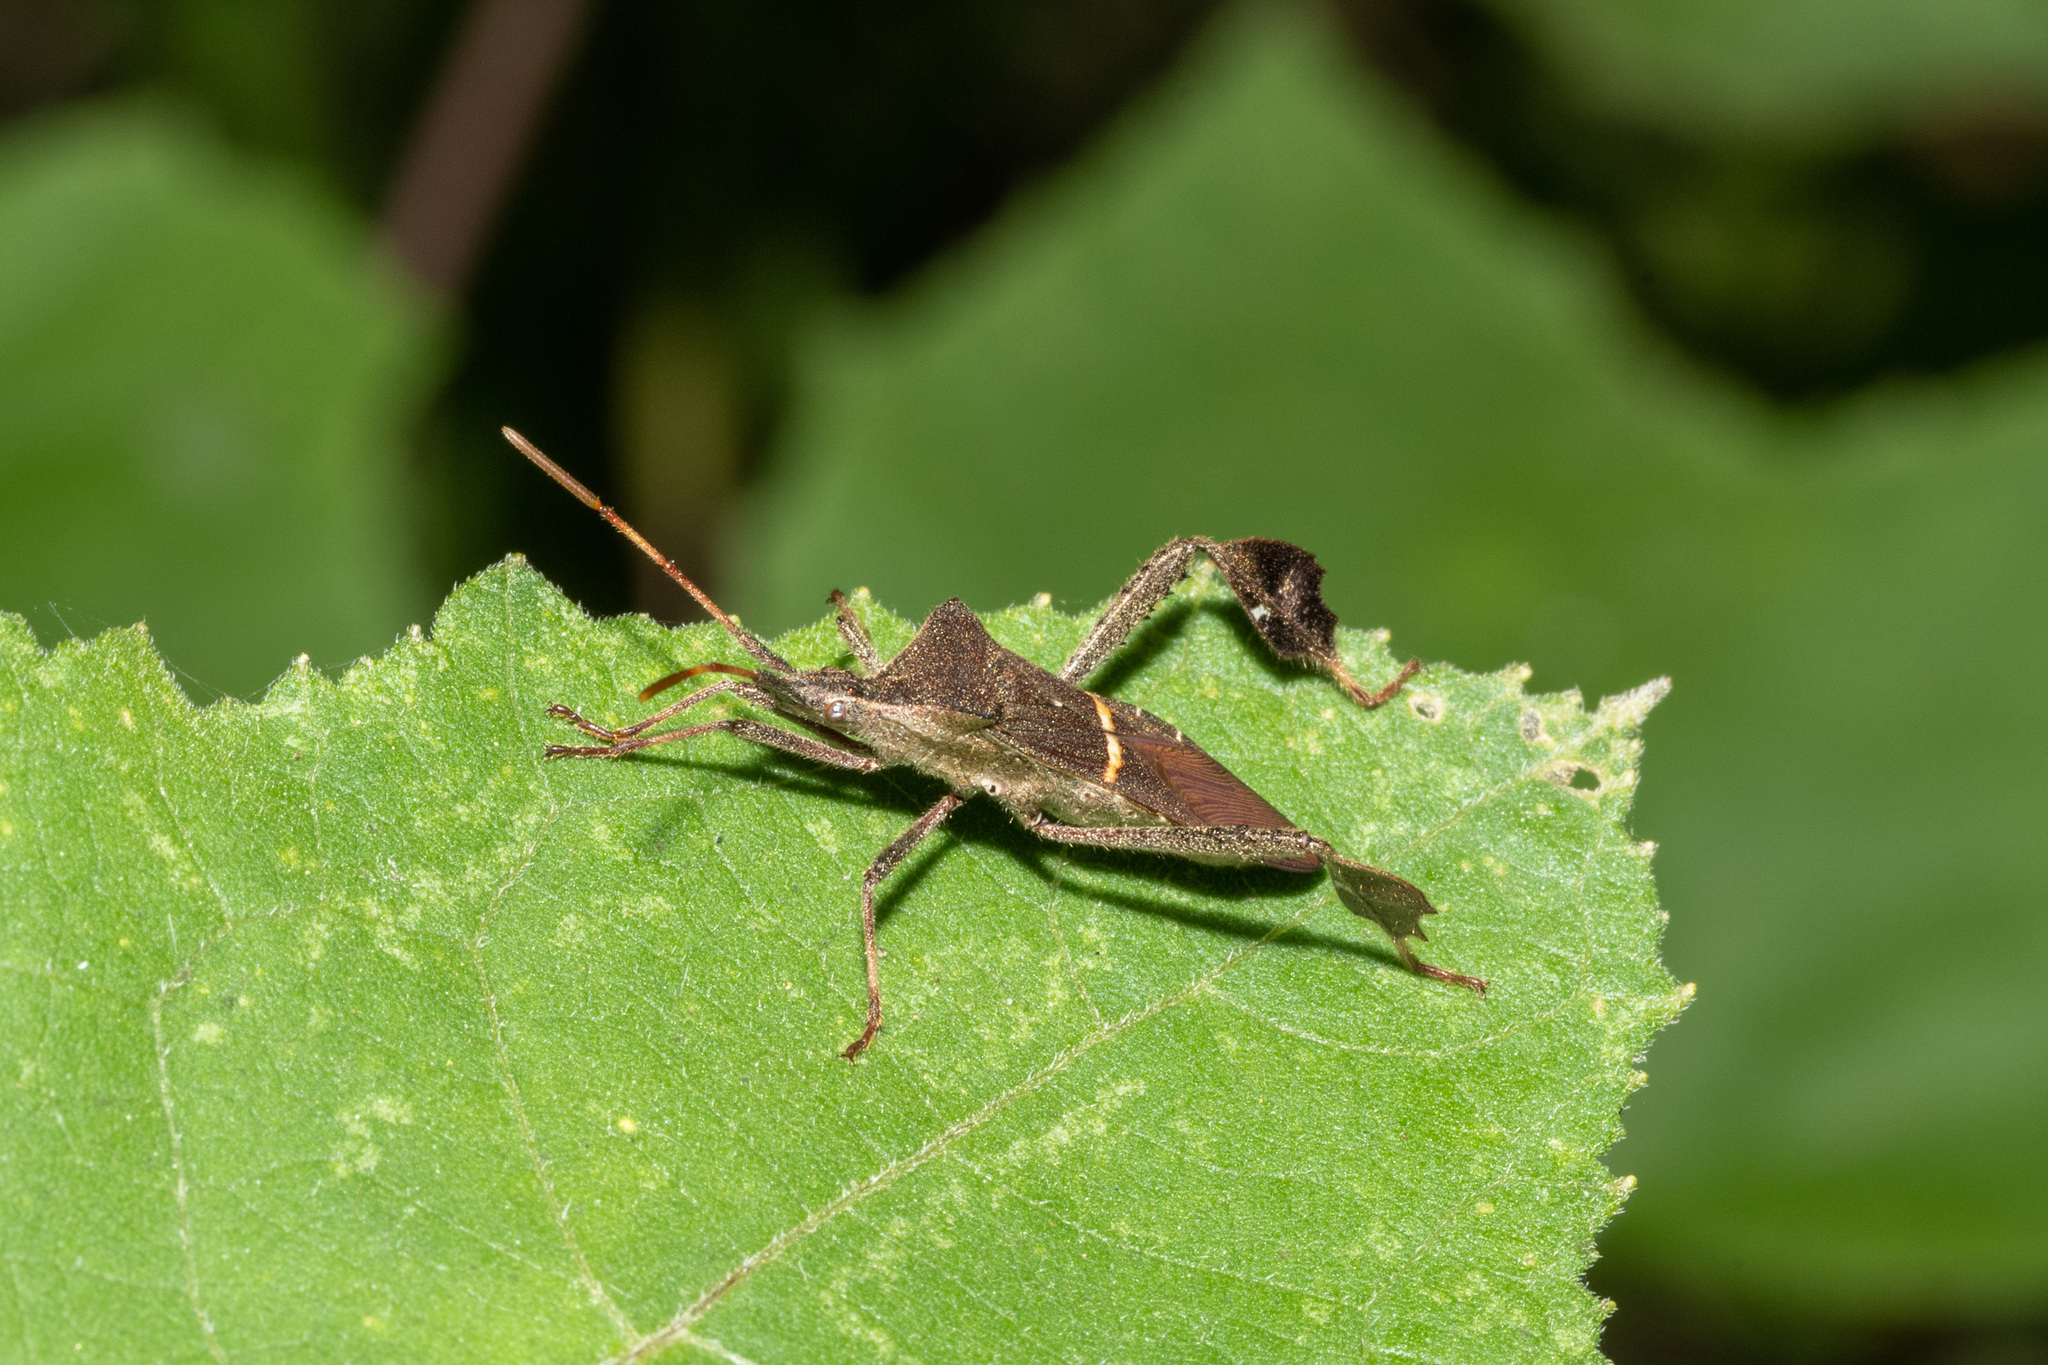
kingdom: Animalia
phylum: Arthropoda
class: Insecta
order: Hemiptera
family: Coreidae
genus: Leptoglossus
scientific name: Leptoglossus phyllopus
